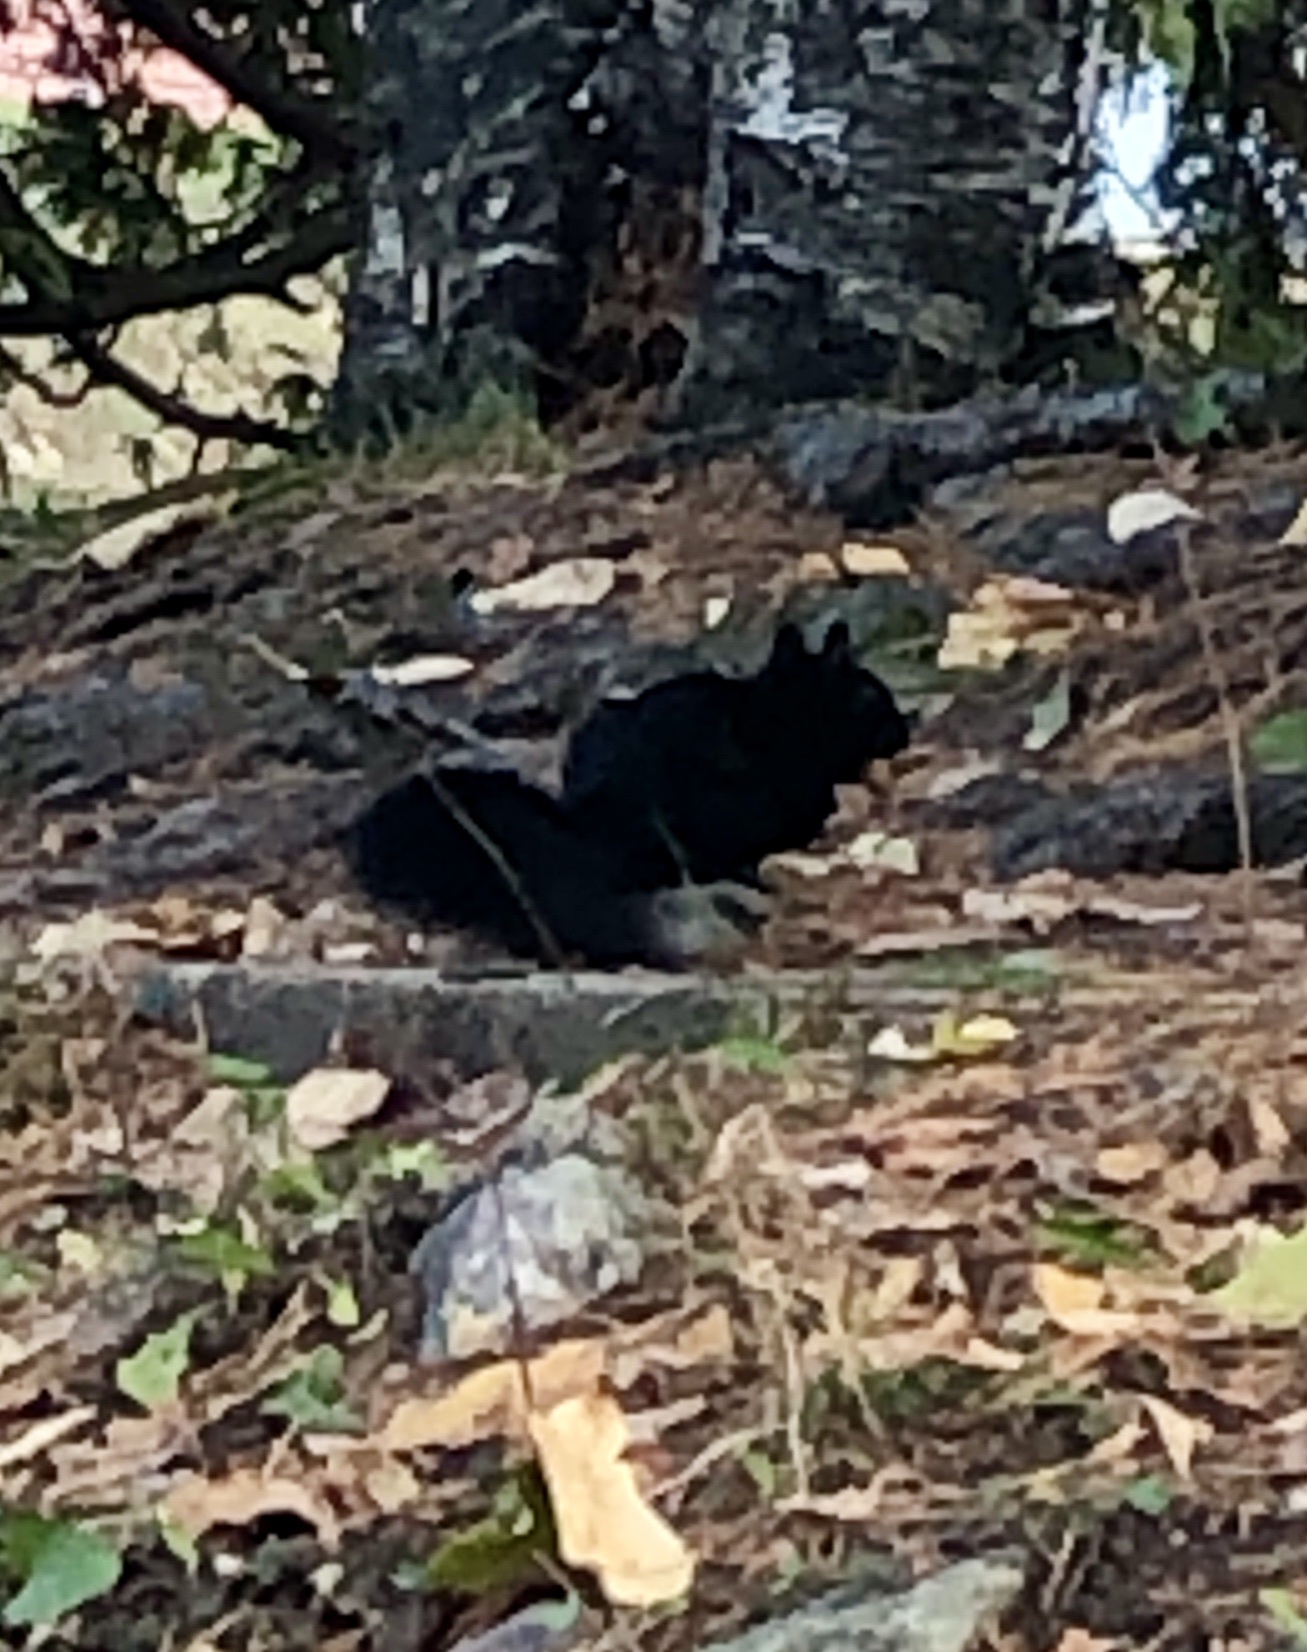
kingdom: Animalia
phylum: Chordata
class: Mammalia
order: Rodentia
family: Sciuridae
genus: Sciurus
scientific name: Sciurus carolinensis
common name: Eastern gray squirrel
